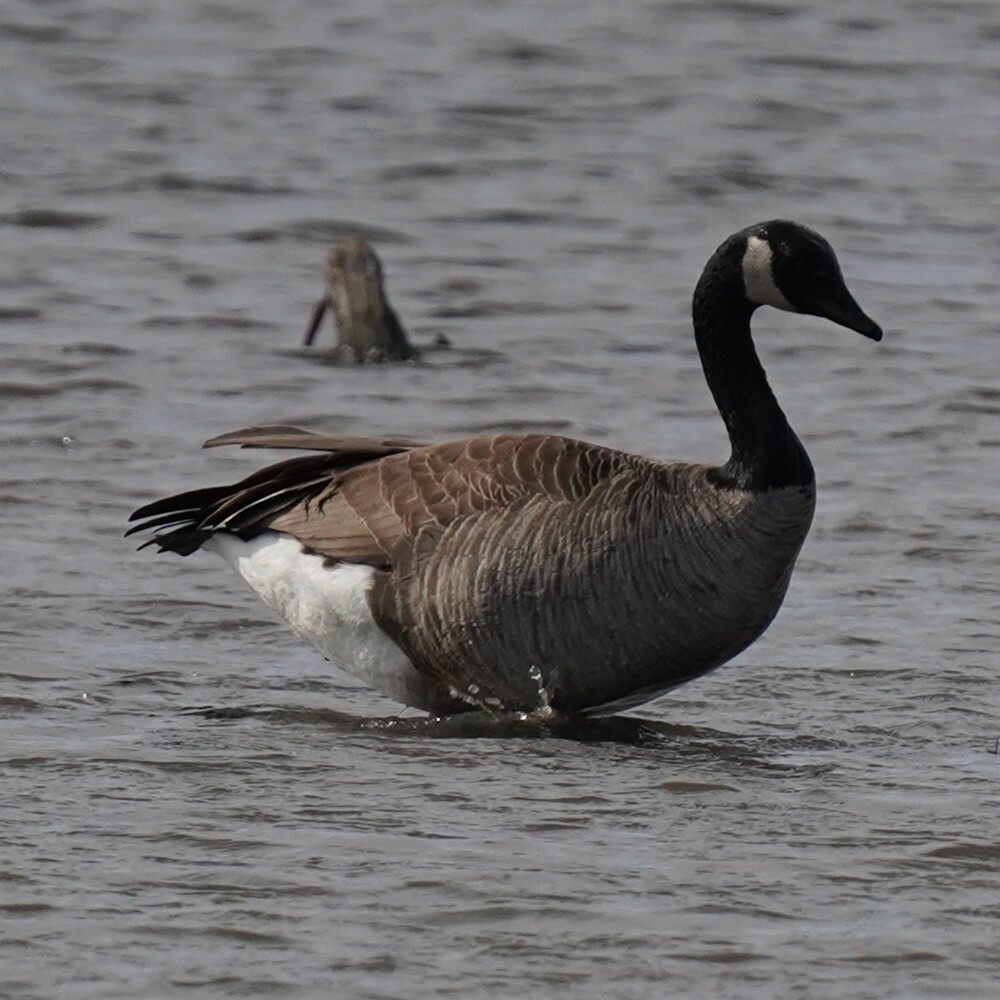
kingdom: Animalia
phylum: Chordata
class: Aves
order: Anseriformes
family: Anatidae
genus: Branta
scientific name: Branta canadensis
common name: Canada goose
